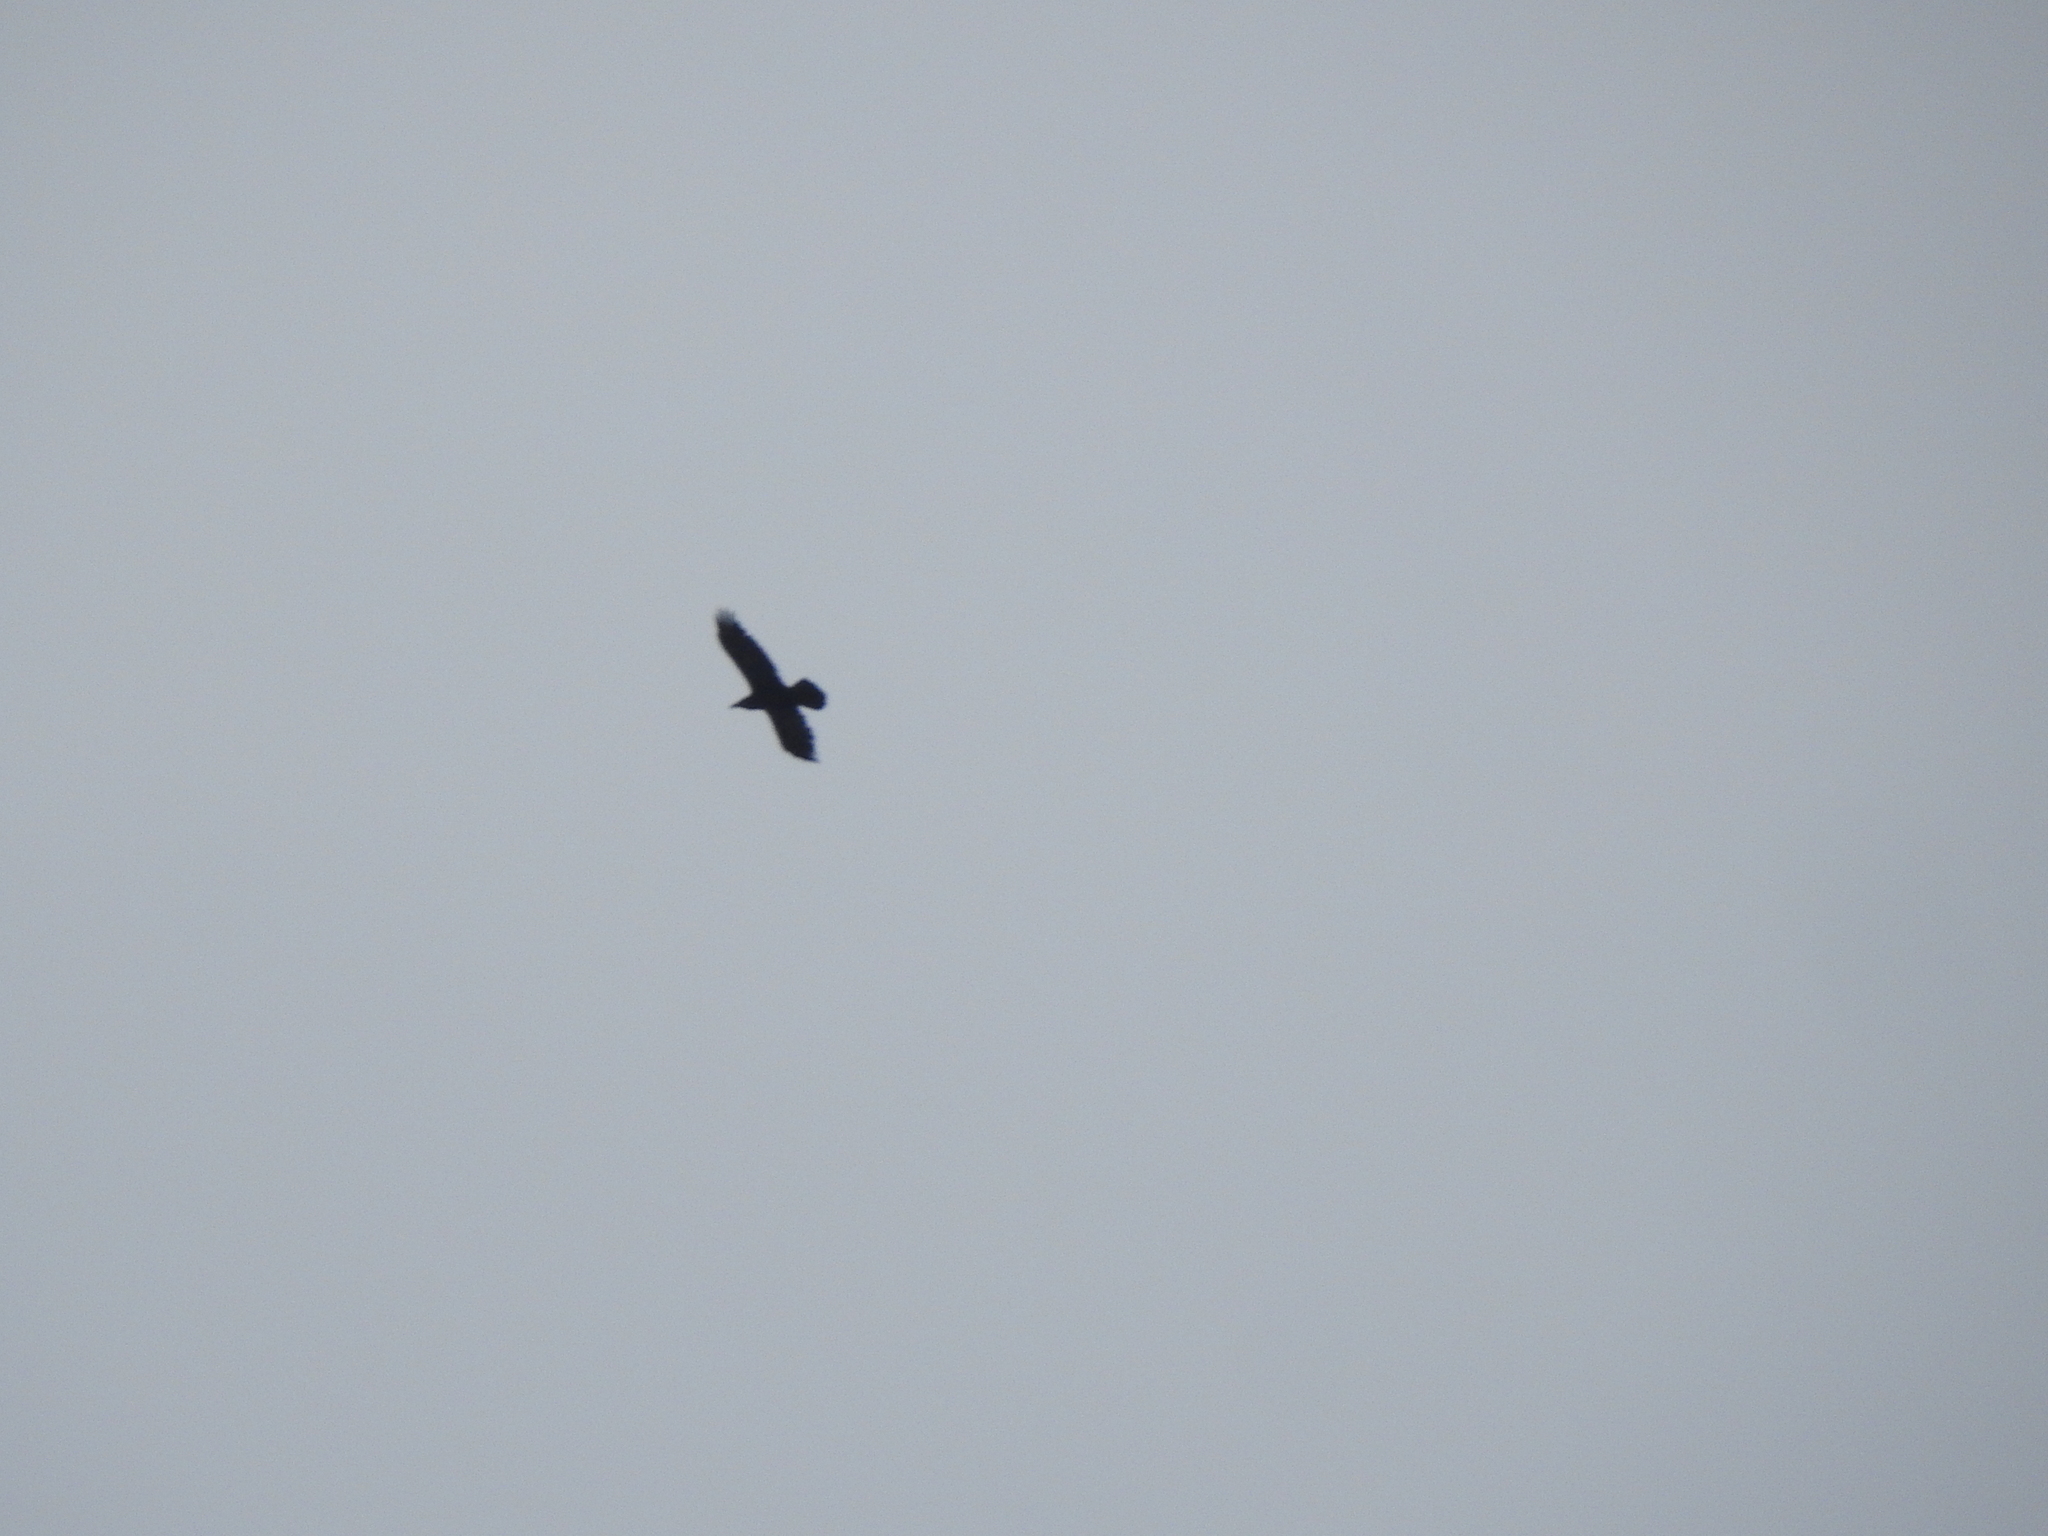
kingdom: Animalia
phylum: Chordata
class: Aves
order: Passeriformes
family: Corvidae
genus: Corvus
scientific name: Corvus corax
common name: Common raven
